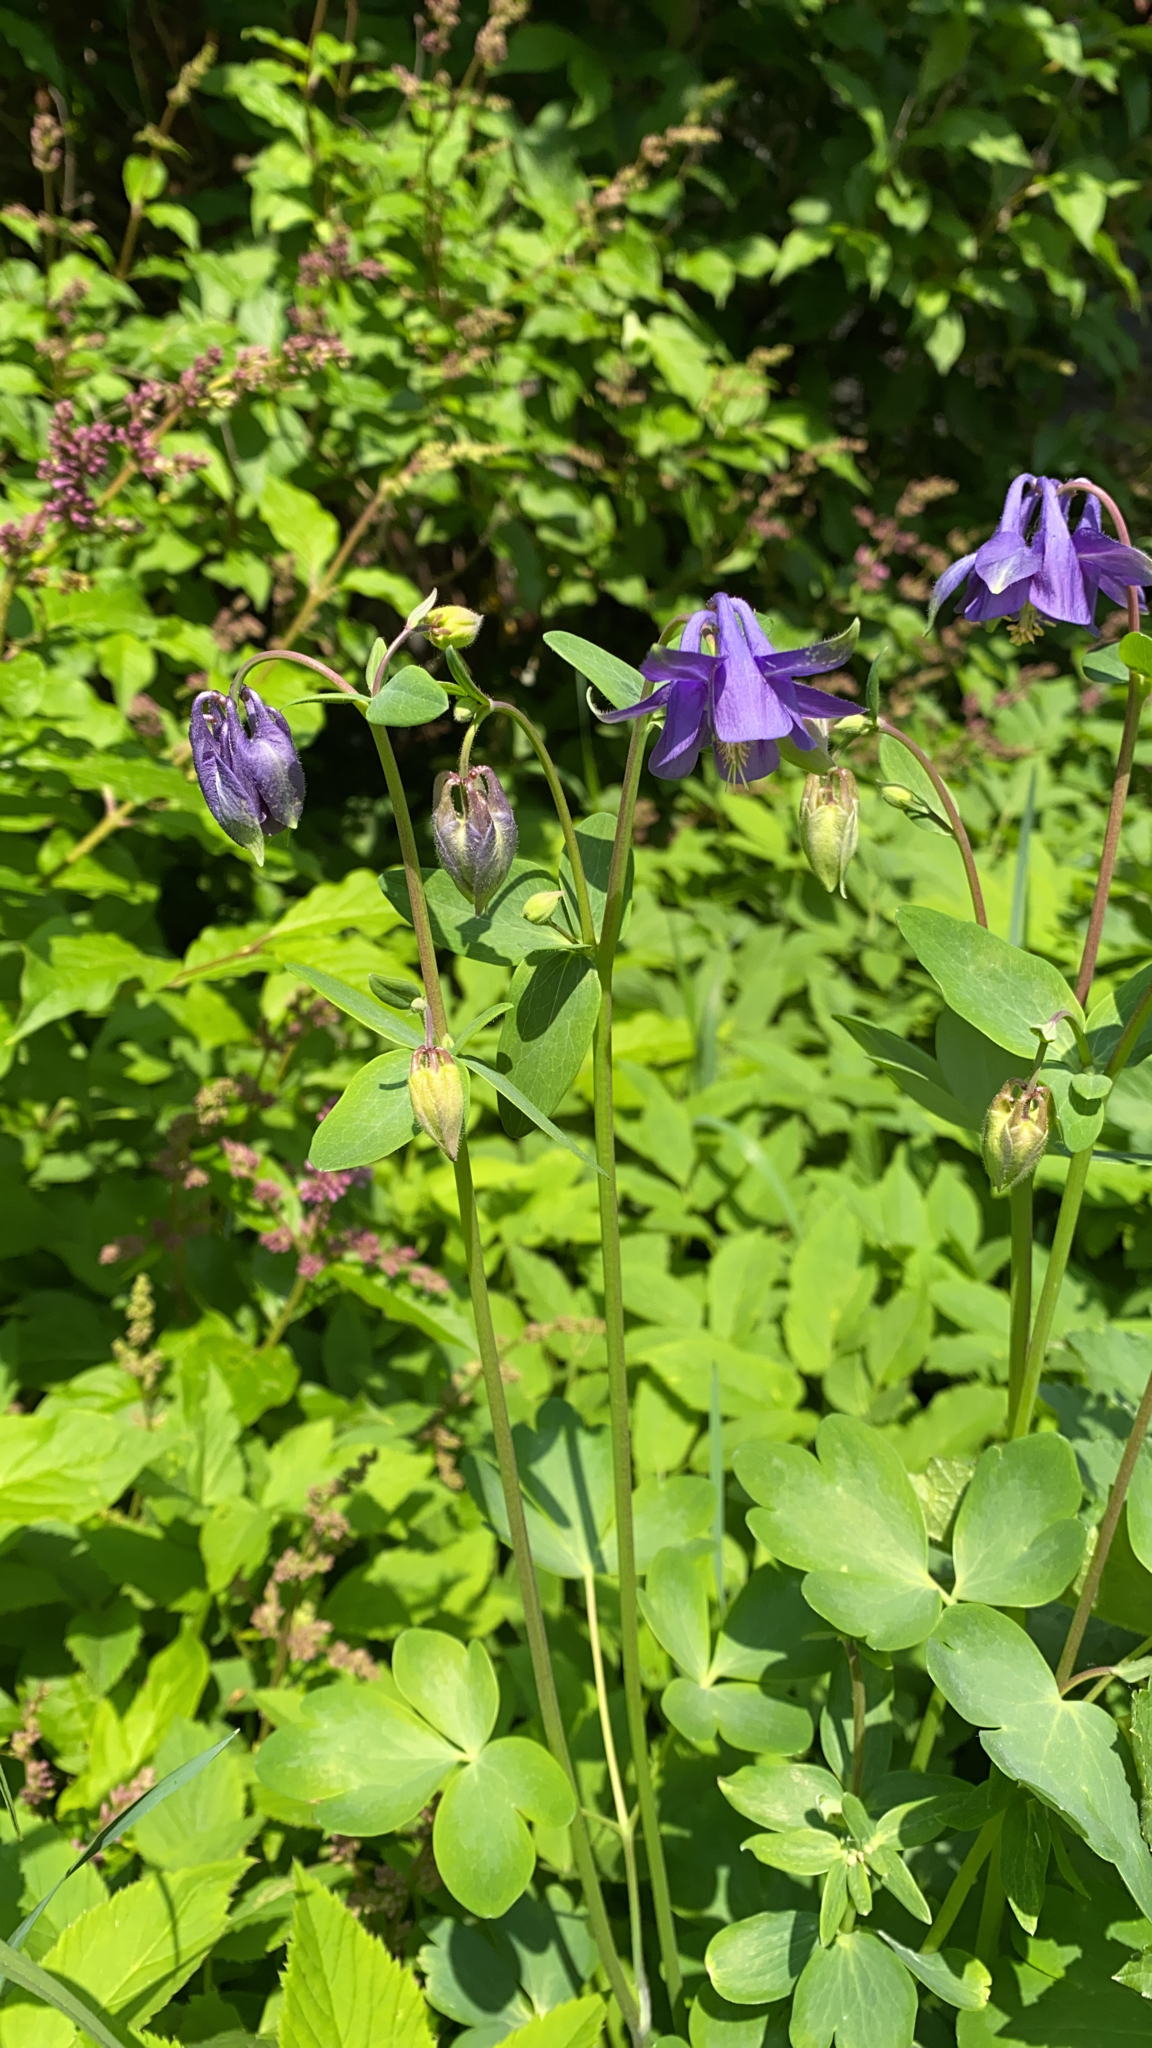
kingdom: Plantae
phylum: Tracheophyta
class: Magnoliopsida
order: Ranunculales
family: Ranunculaceae
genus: Aquilegia
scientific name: Aquilegia vulgaris
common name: Columbine
